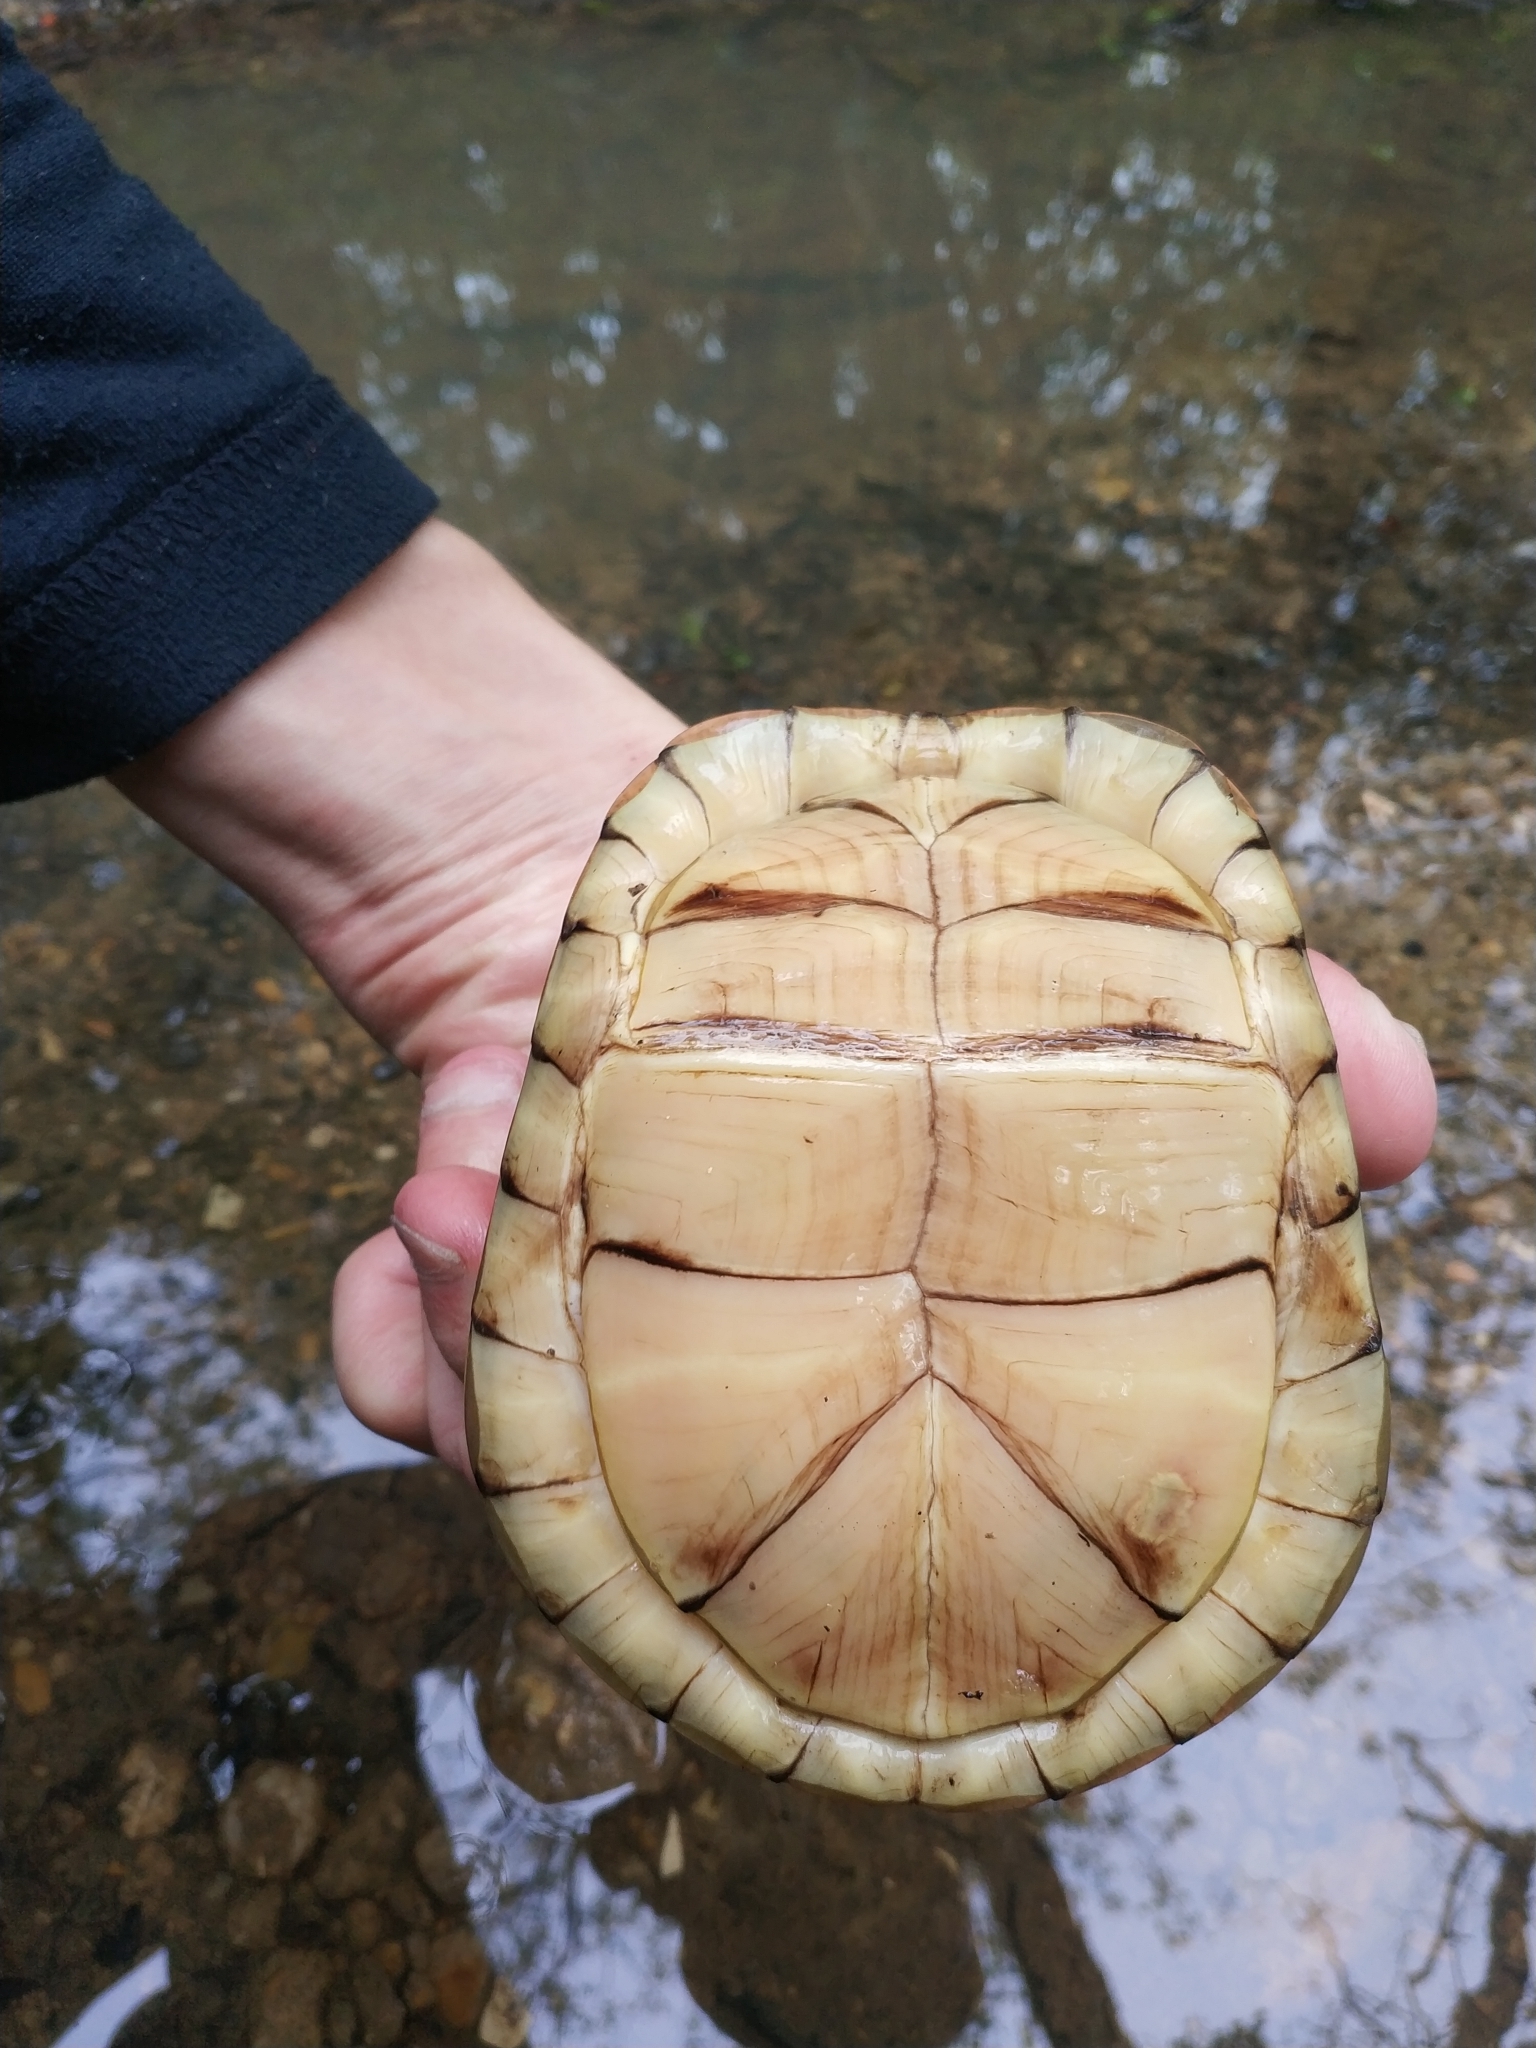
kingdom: Animalia
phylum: Chordata
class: Testudines
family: Emydidae
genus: Terrapene
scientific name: Terrapene carolina
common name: Common box turtle
